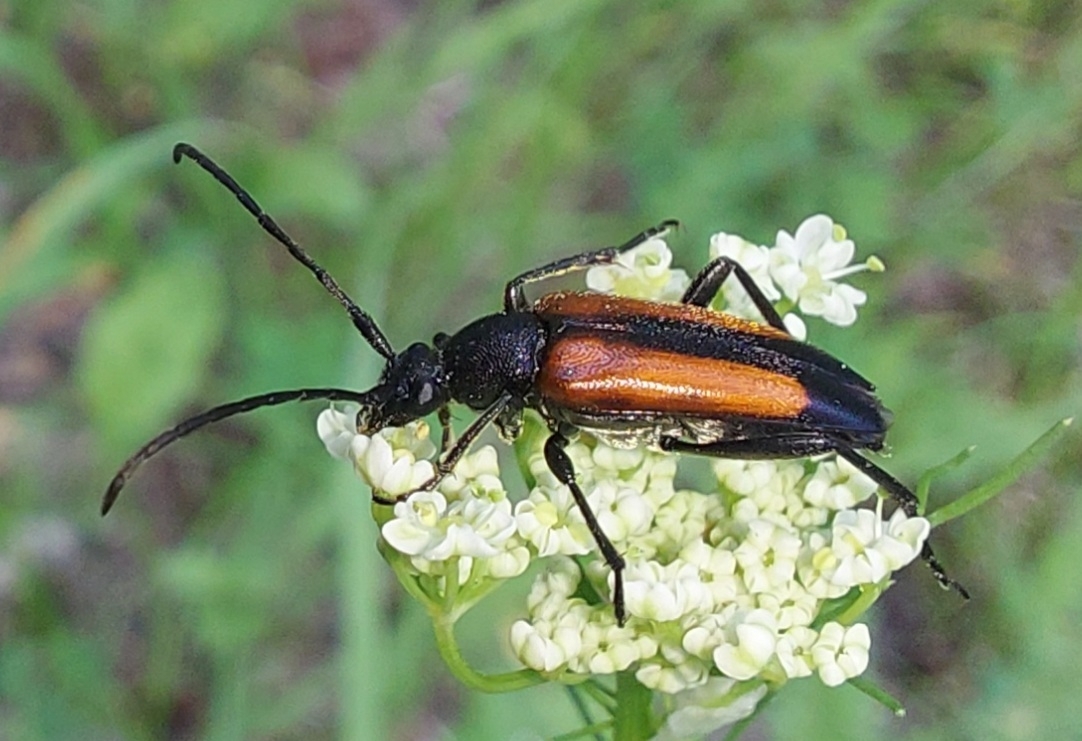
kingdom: Animalia
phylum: Arthropoda
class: Insecta
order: Coleoptera
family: Cerambycidae
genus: Stenurella
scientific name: Stenurella melanura
